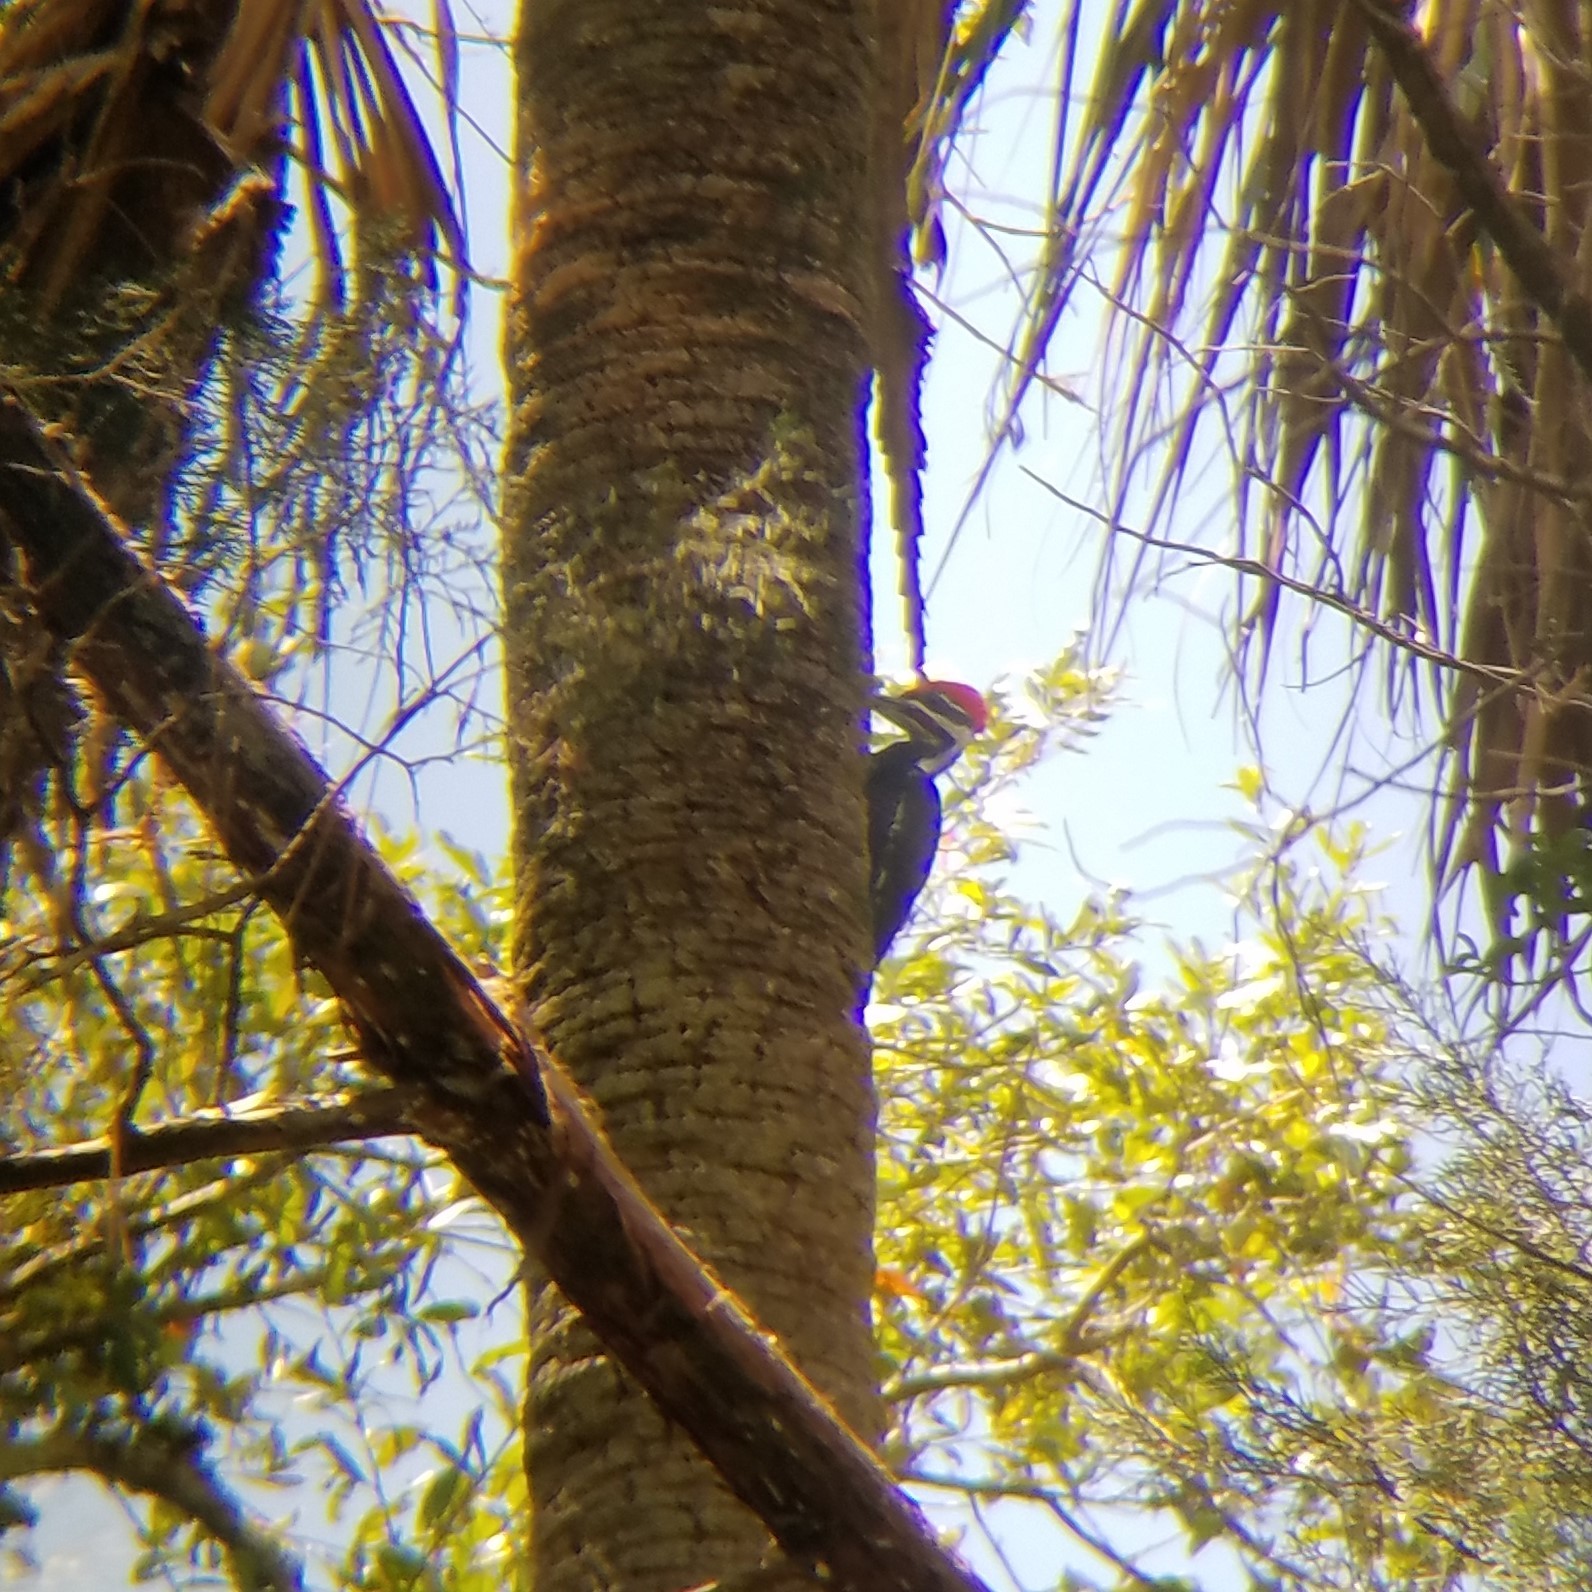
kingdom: Animalia
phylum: Chordata
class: Aves
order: Piciformes
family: Picidae
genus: Dryocopus
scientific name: Dryocopus pileatus
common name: Pileated woodpecker
